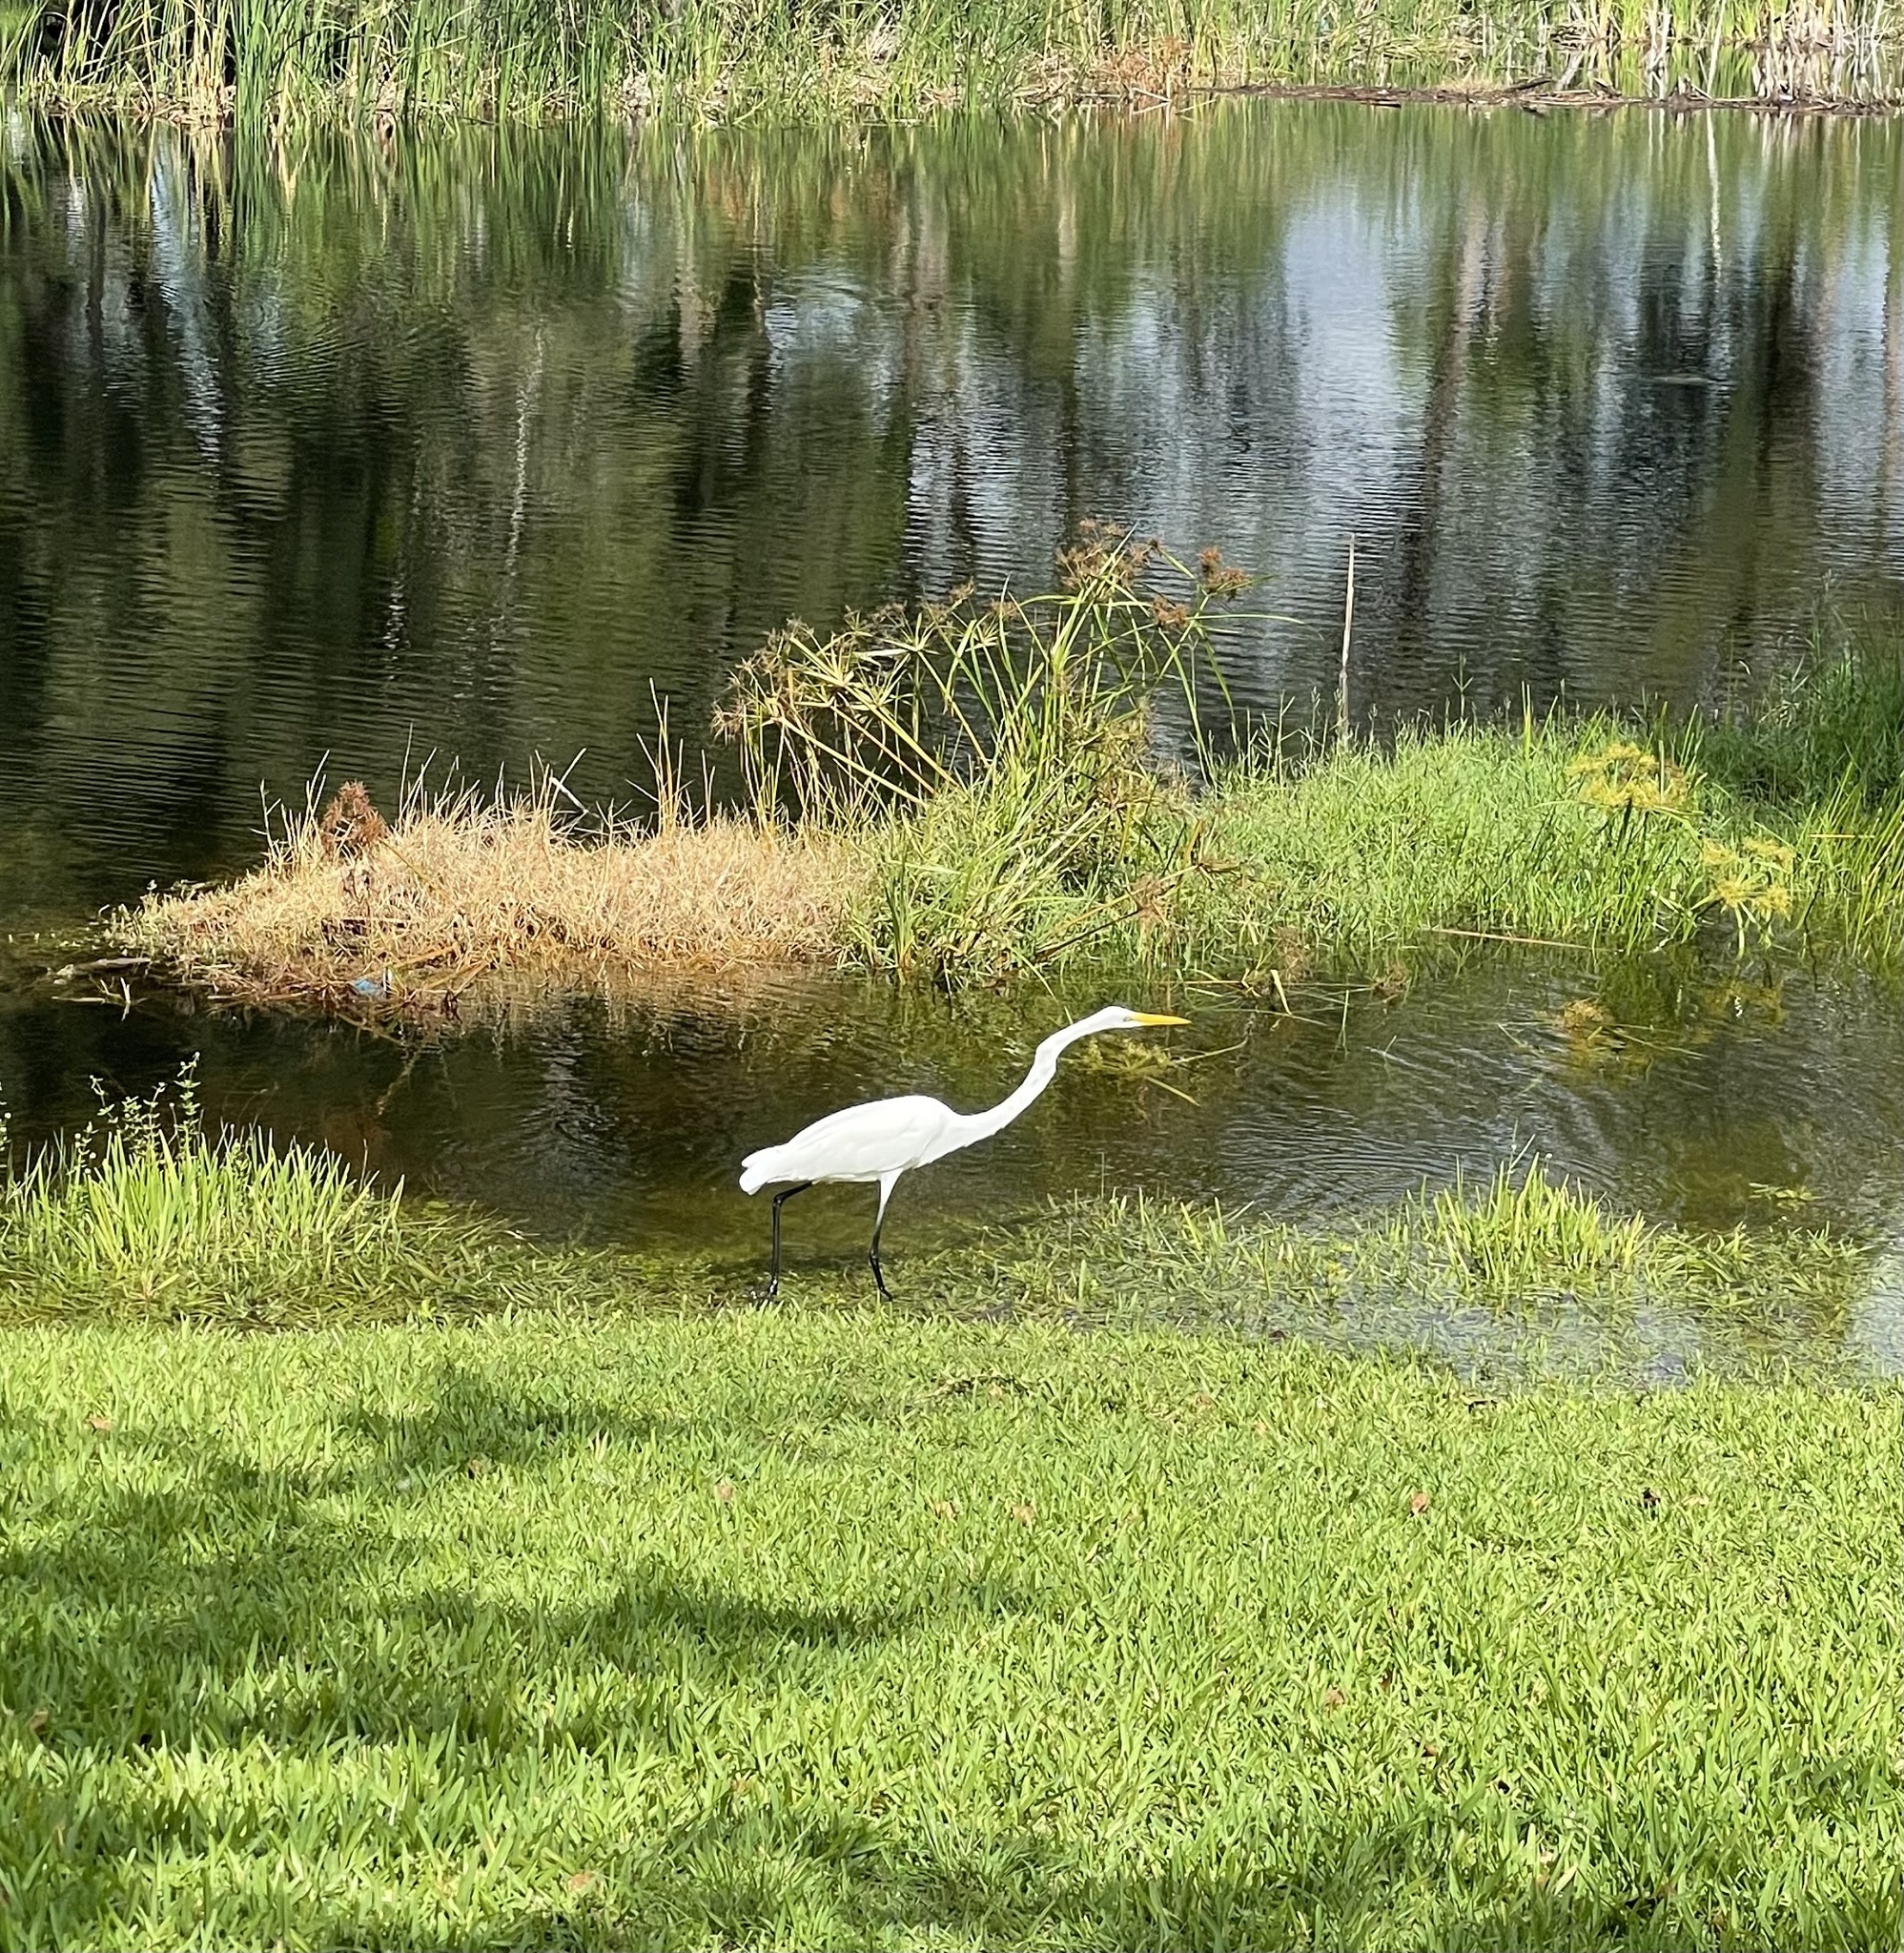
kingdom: Animalia
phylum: Chordata
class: Aves
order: Pelecaniformes
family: Ardeidae
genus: Ardea
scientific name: Ardea alba
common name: Great egret
